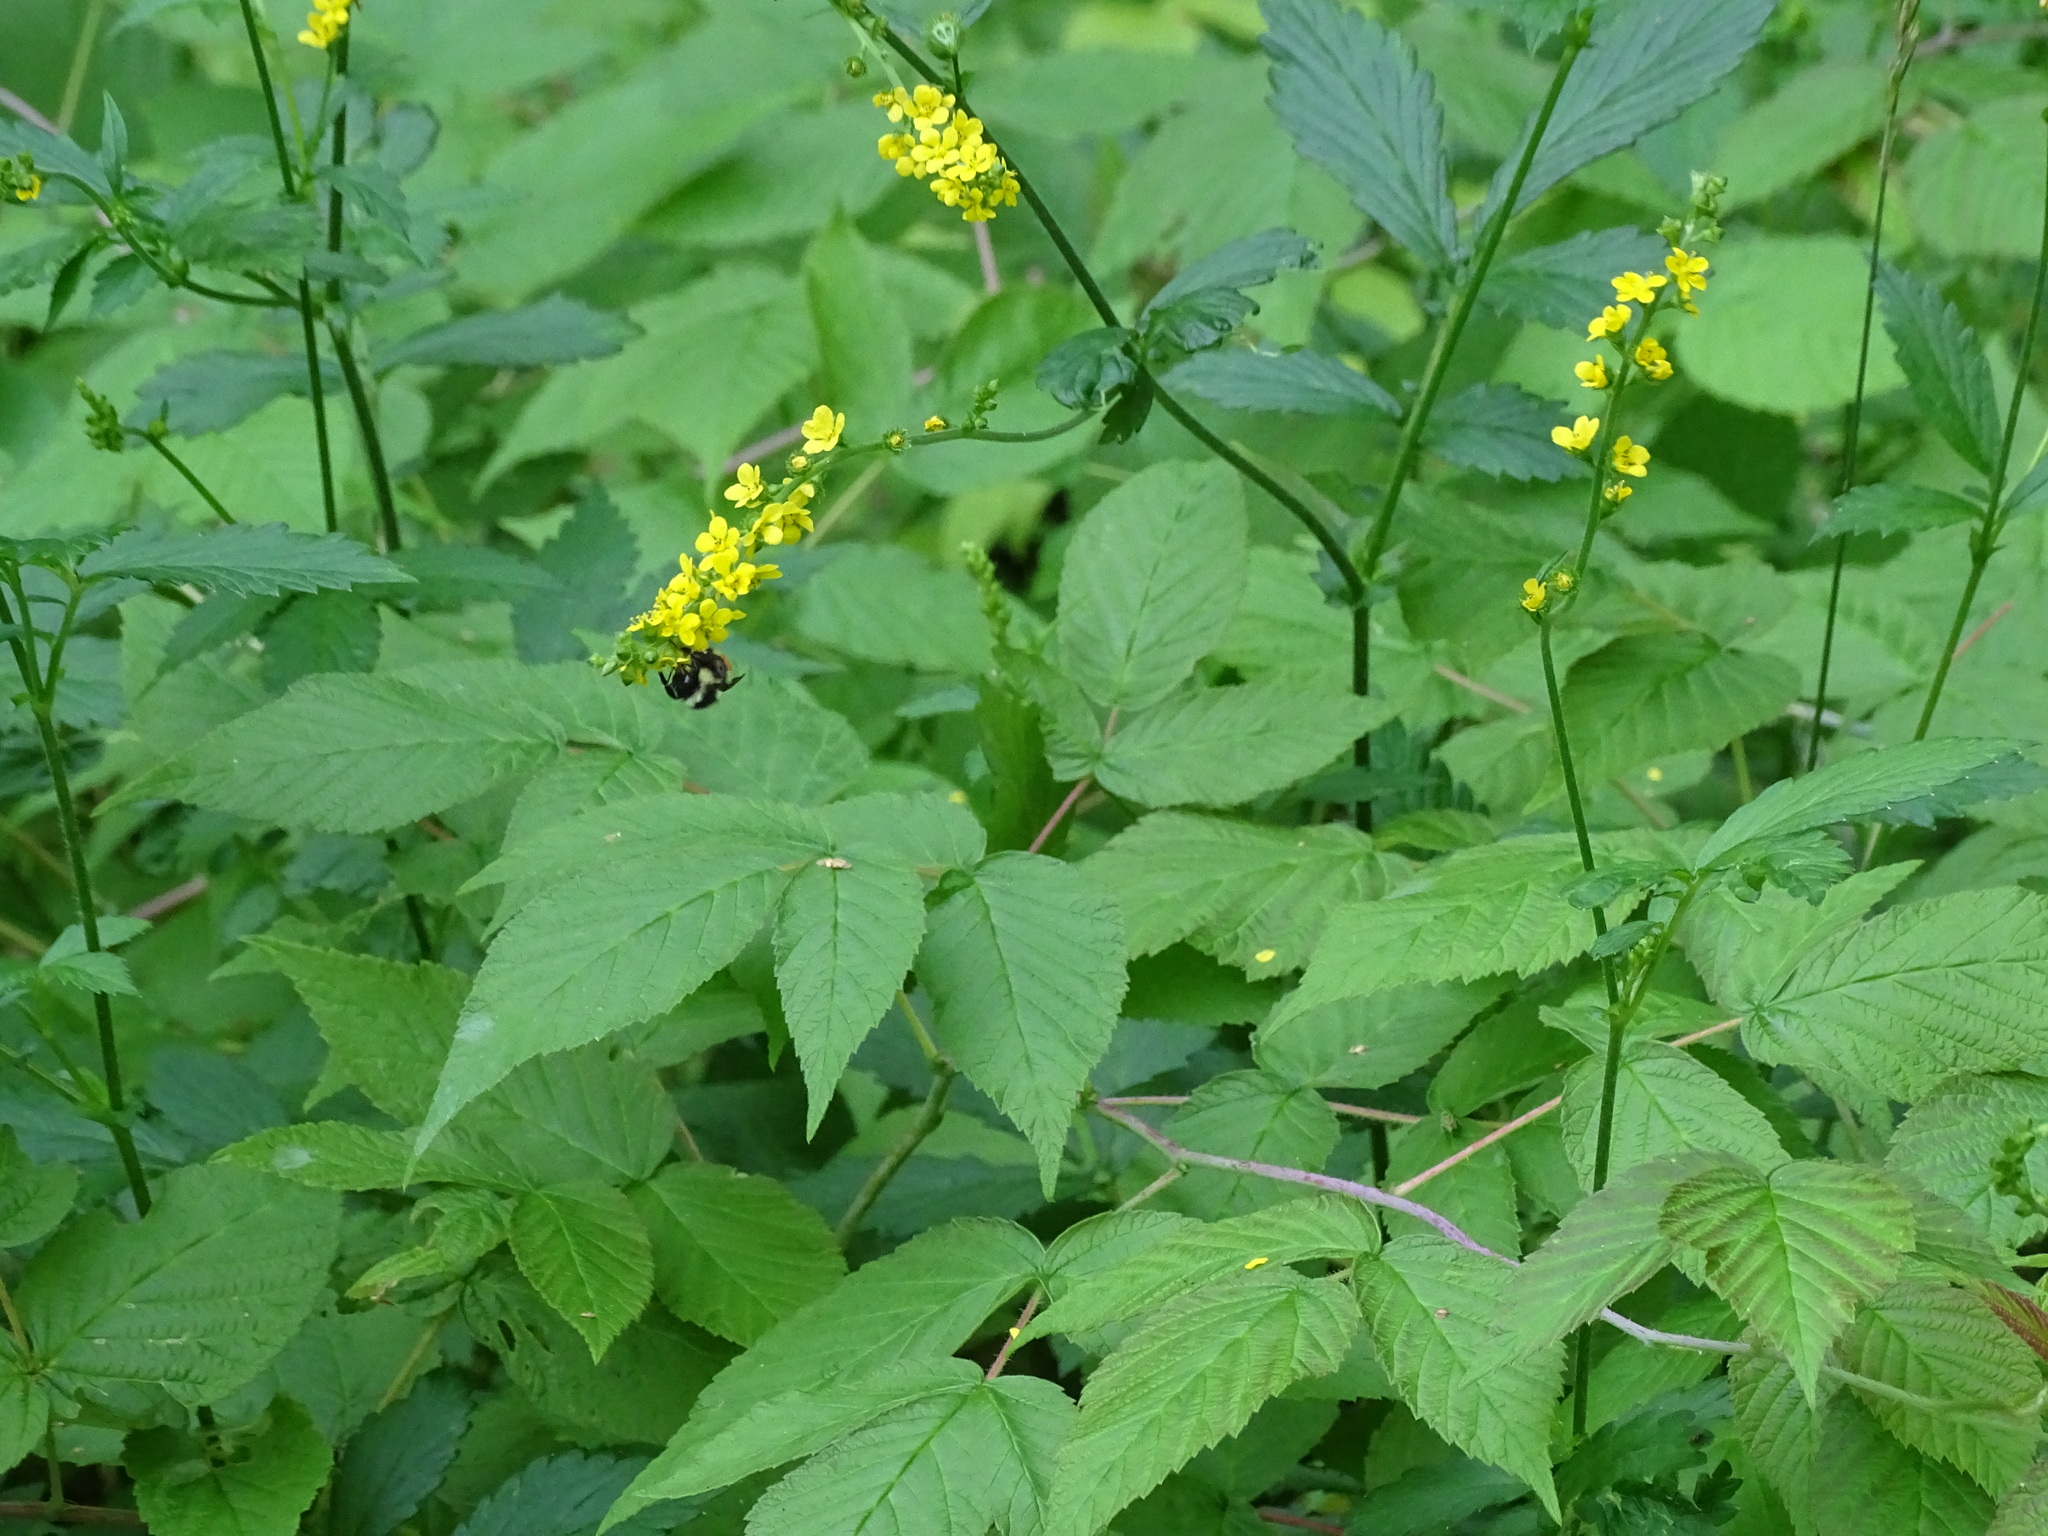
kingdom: Plantae
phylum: Tracheophyta
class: Magnoliopsida
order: Rosales
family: Rosaceae
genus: Agrimonia
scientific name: Agrimonia striata
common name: Britton's agrimony
